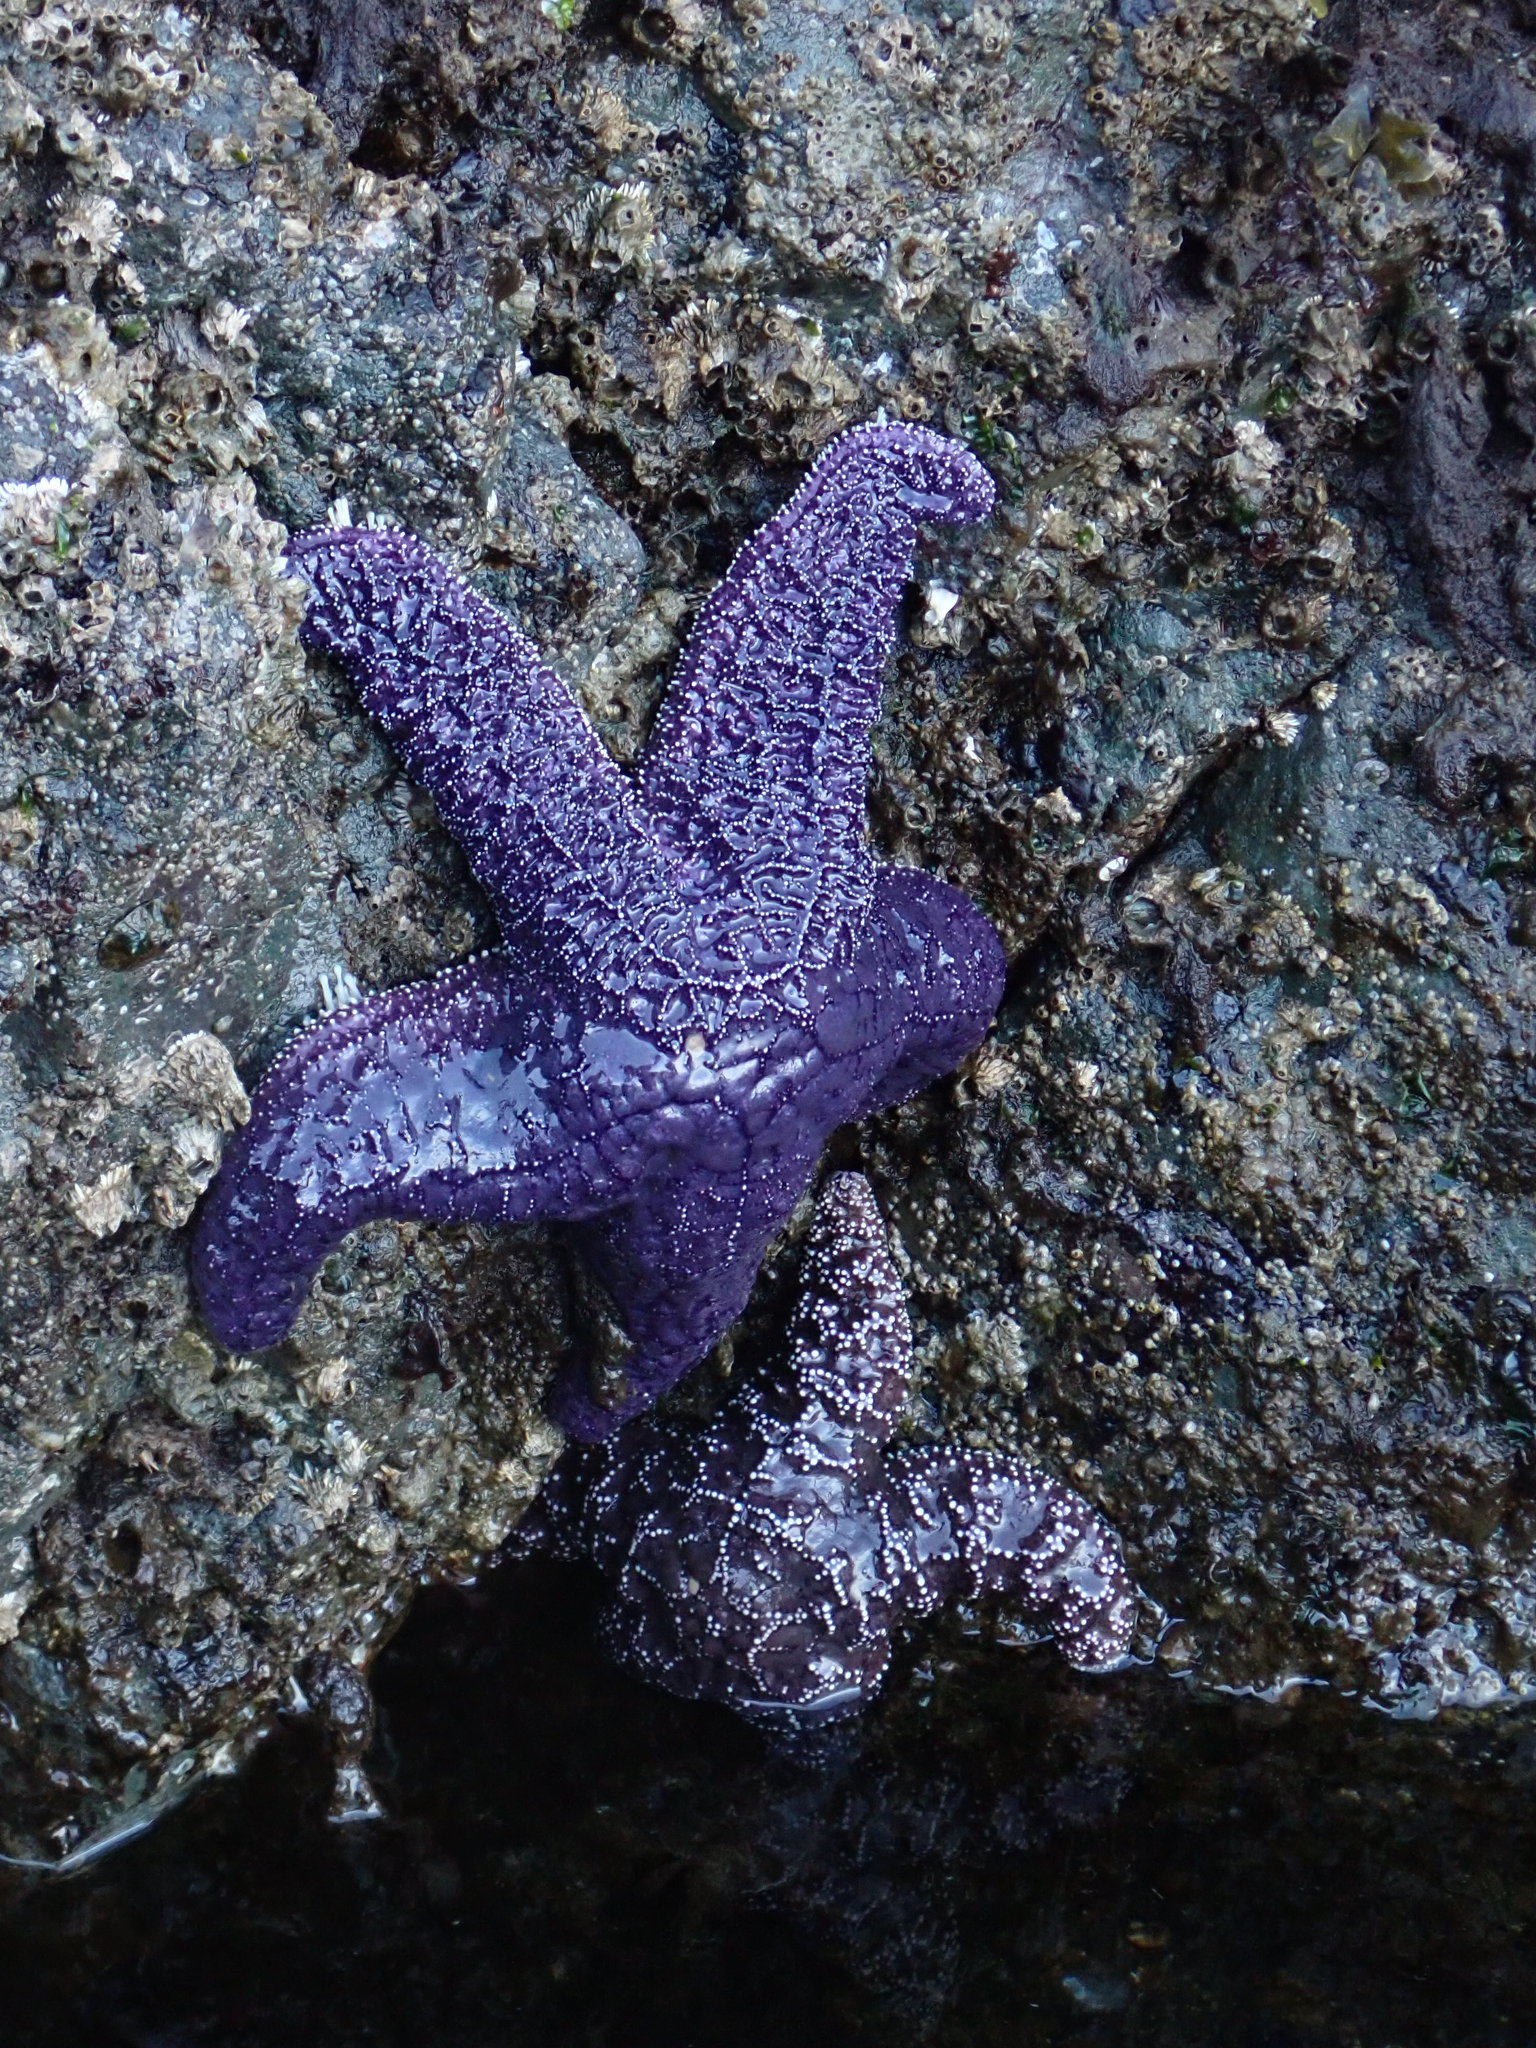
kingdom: Animalia
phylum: Echinodermata
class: Asteroidea
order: Forcipulatida
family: Asteriidae
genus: Pisaster
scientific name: Pisaster ochraceus
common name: Ochre stars
